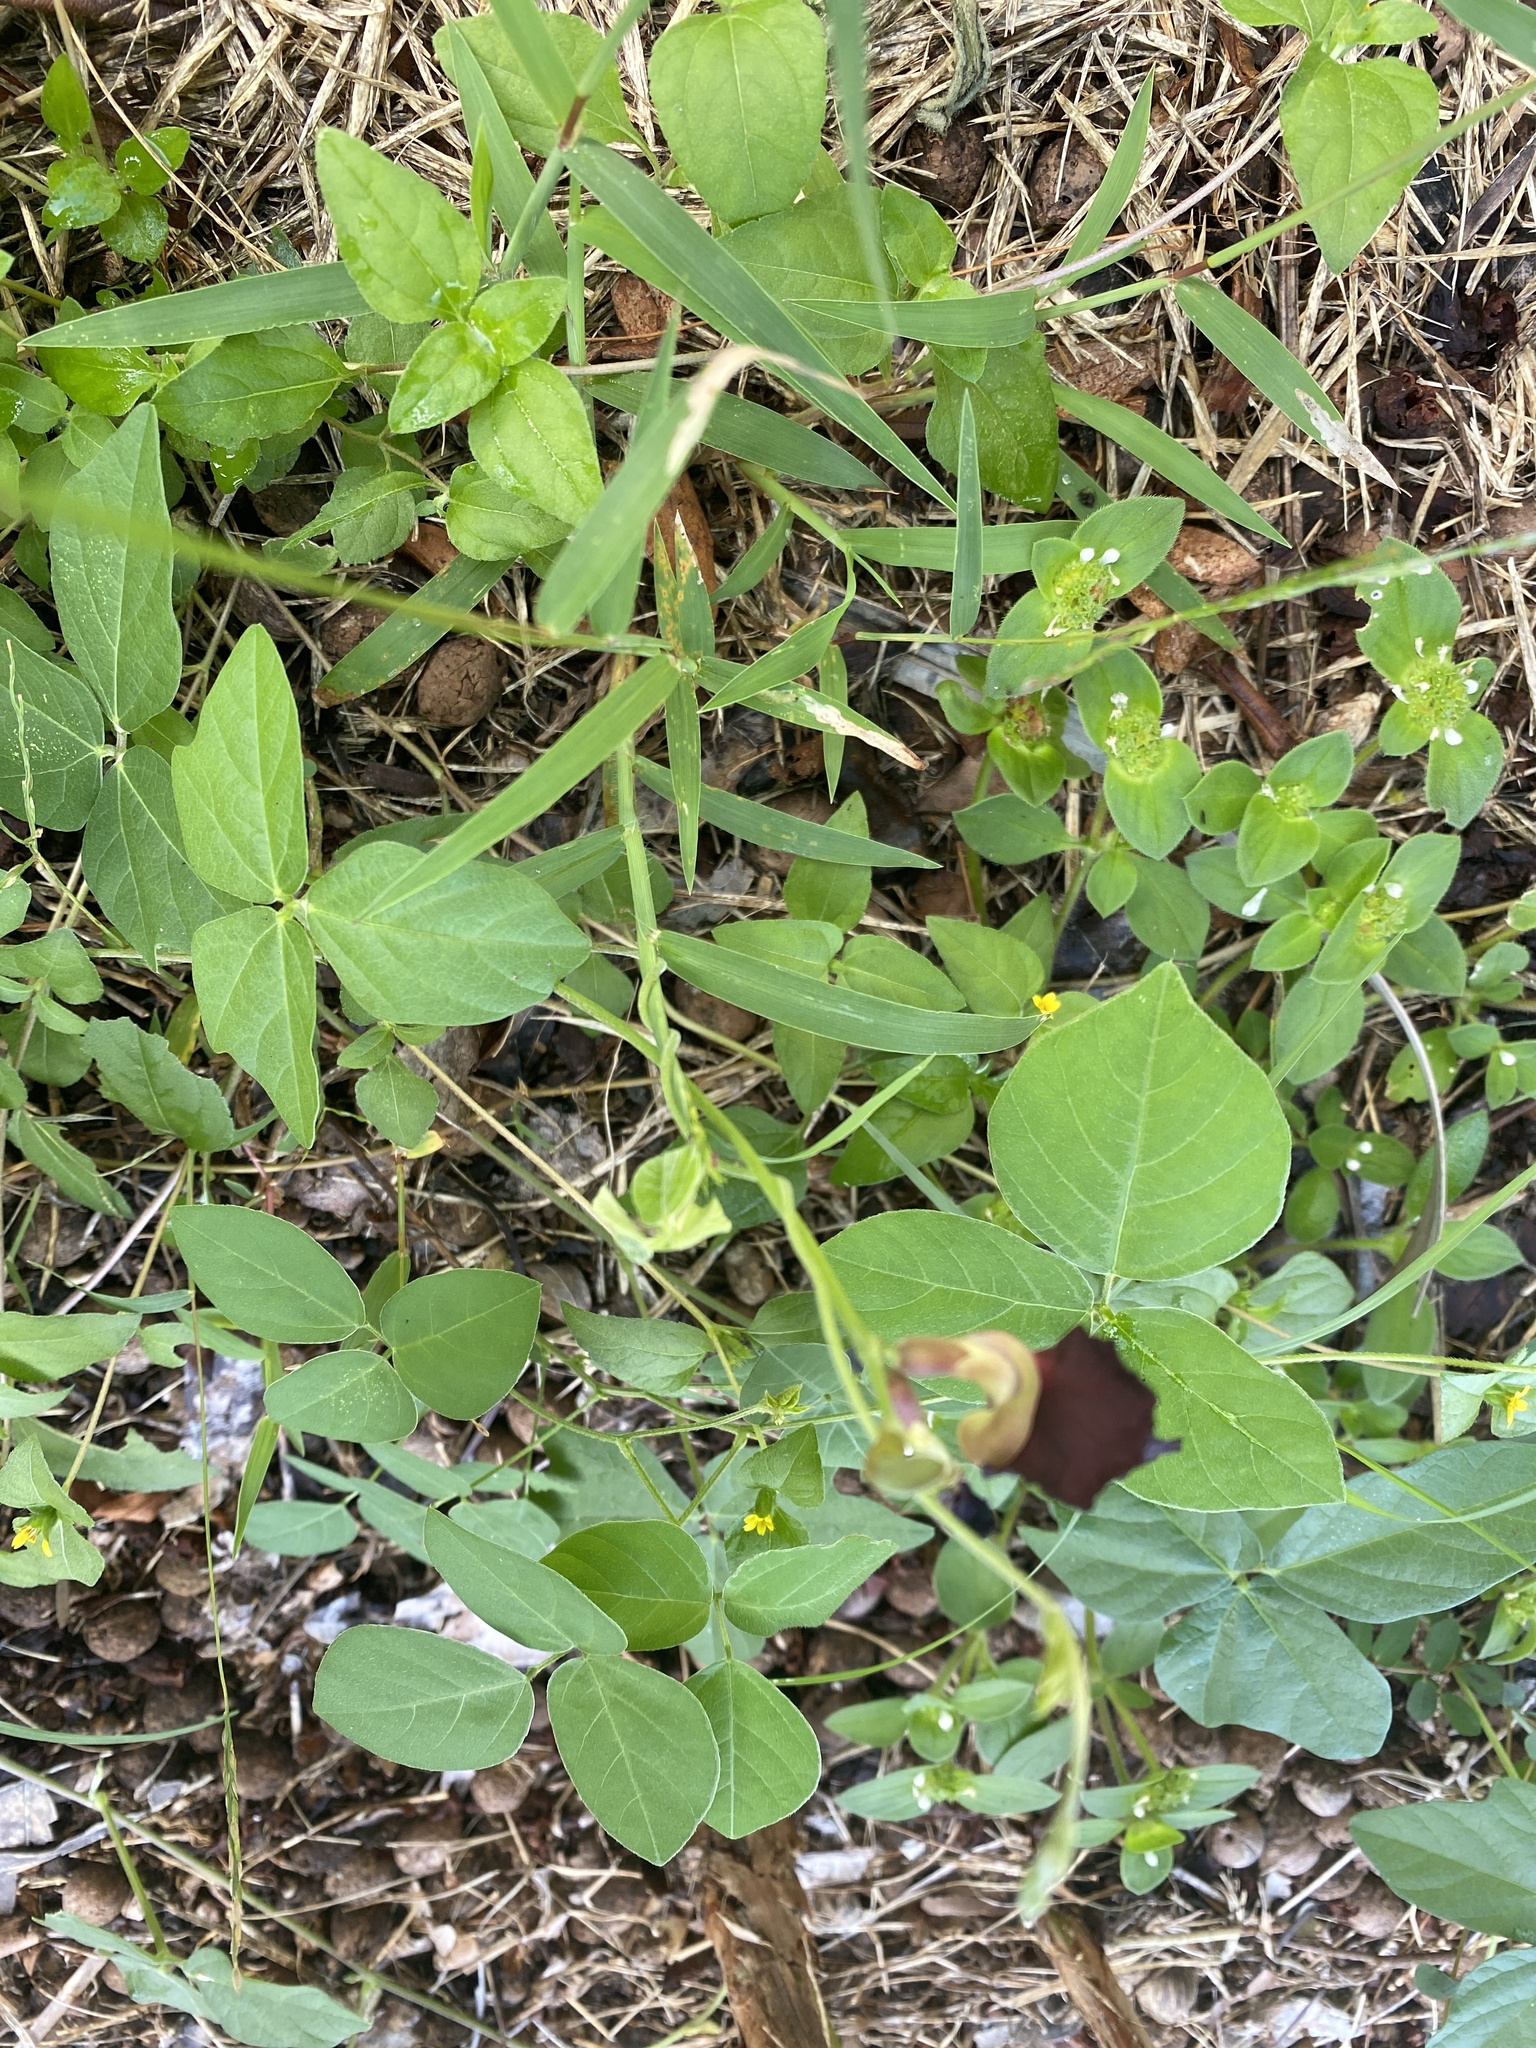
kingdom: Plantae
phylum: Tracheophyta
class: Magnoliopsida
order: Fabales
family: Fabaceae
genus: Macroptilium
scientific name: Macroptilium atropurpureum
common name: Purple bushbean
